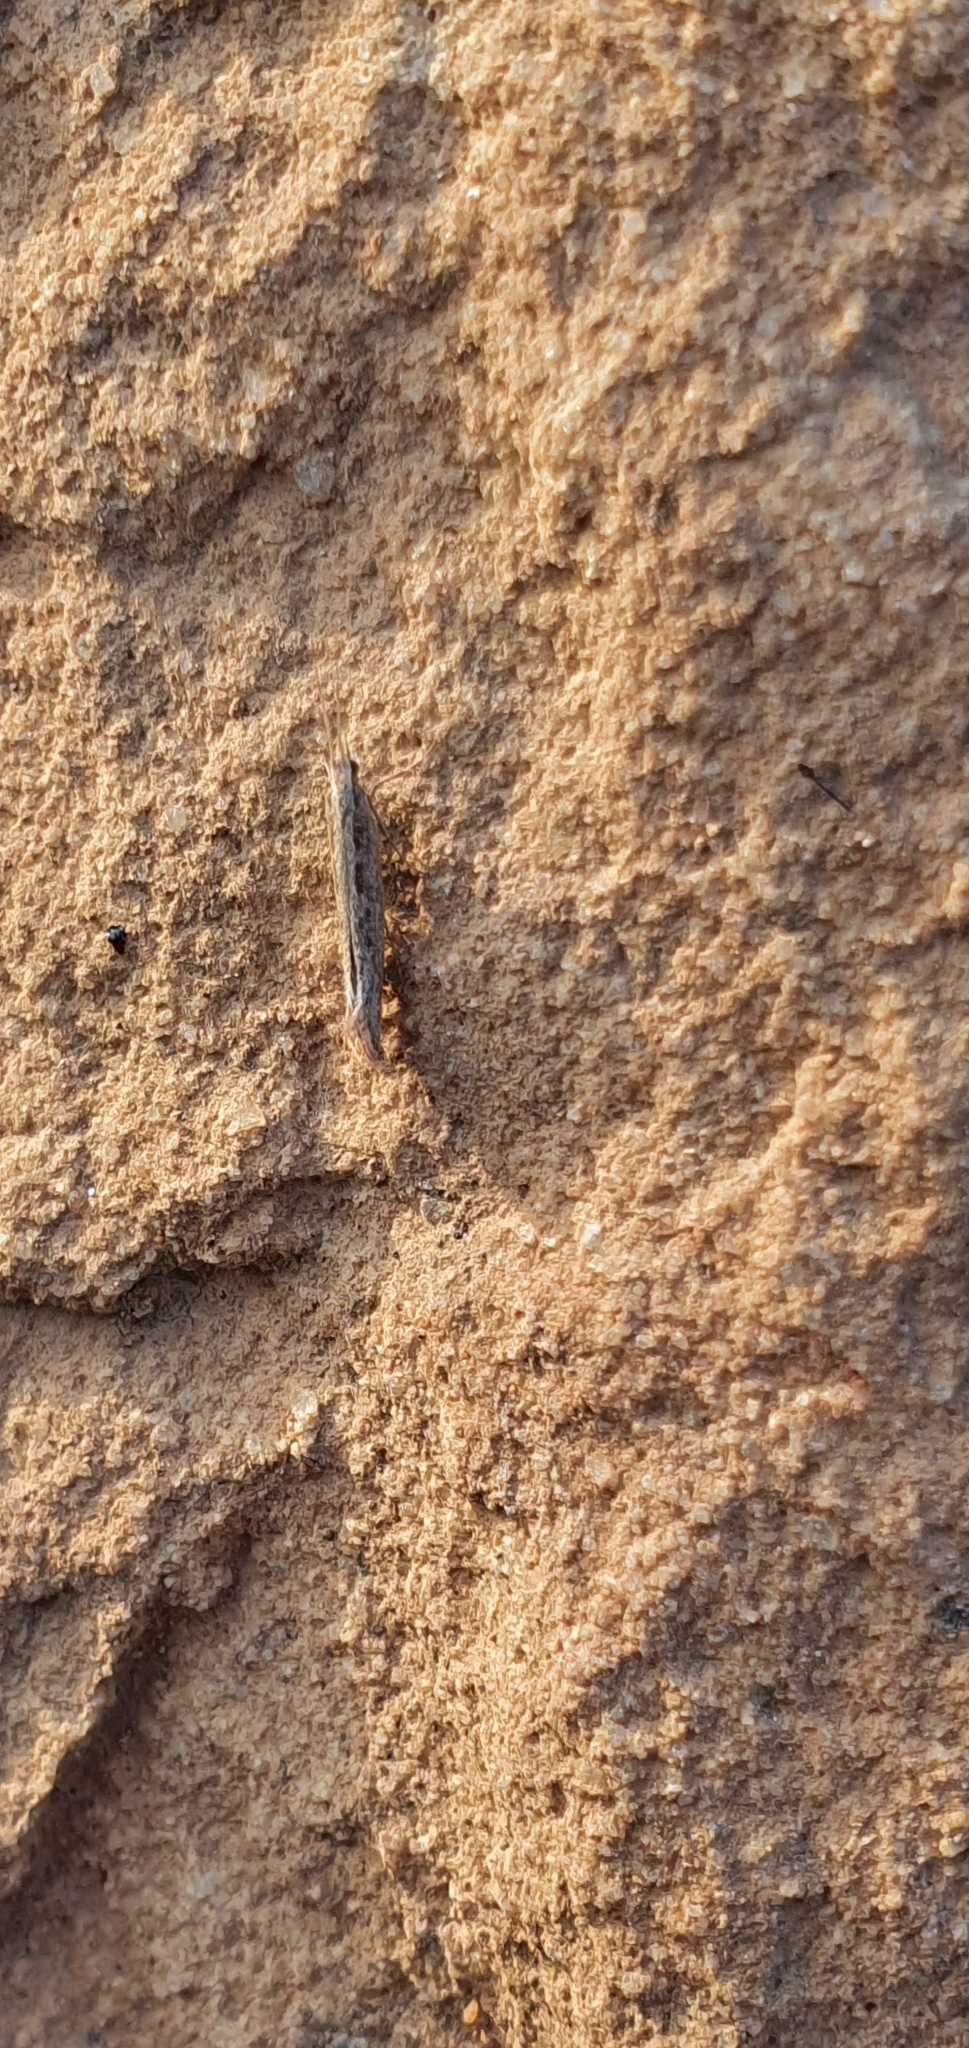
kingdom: Animalia
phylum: Arthropoda
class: Insecta
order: Lepidoptera
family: Plutellidae
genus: Plutella
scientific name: Plutella xylostella
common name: Diamond-back moth
